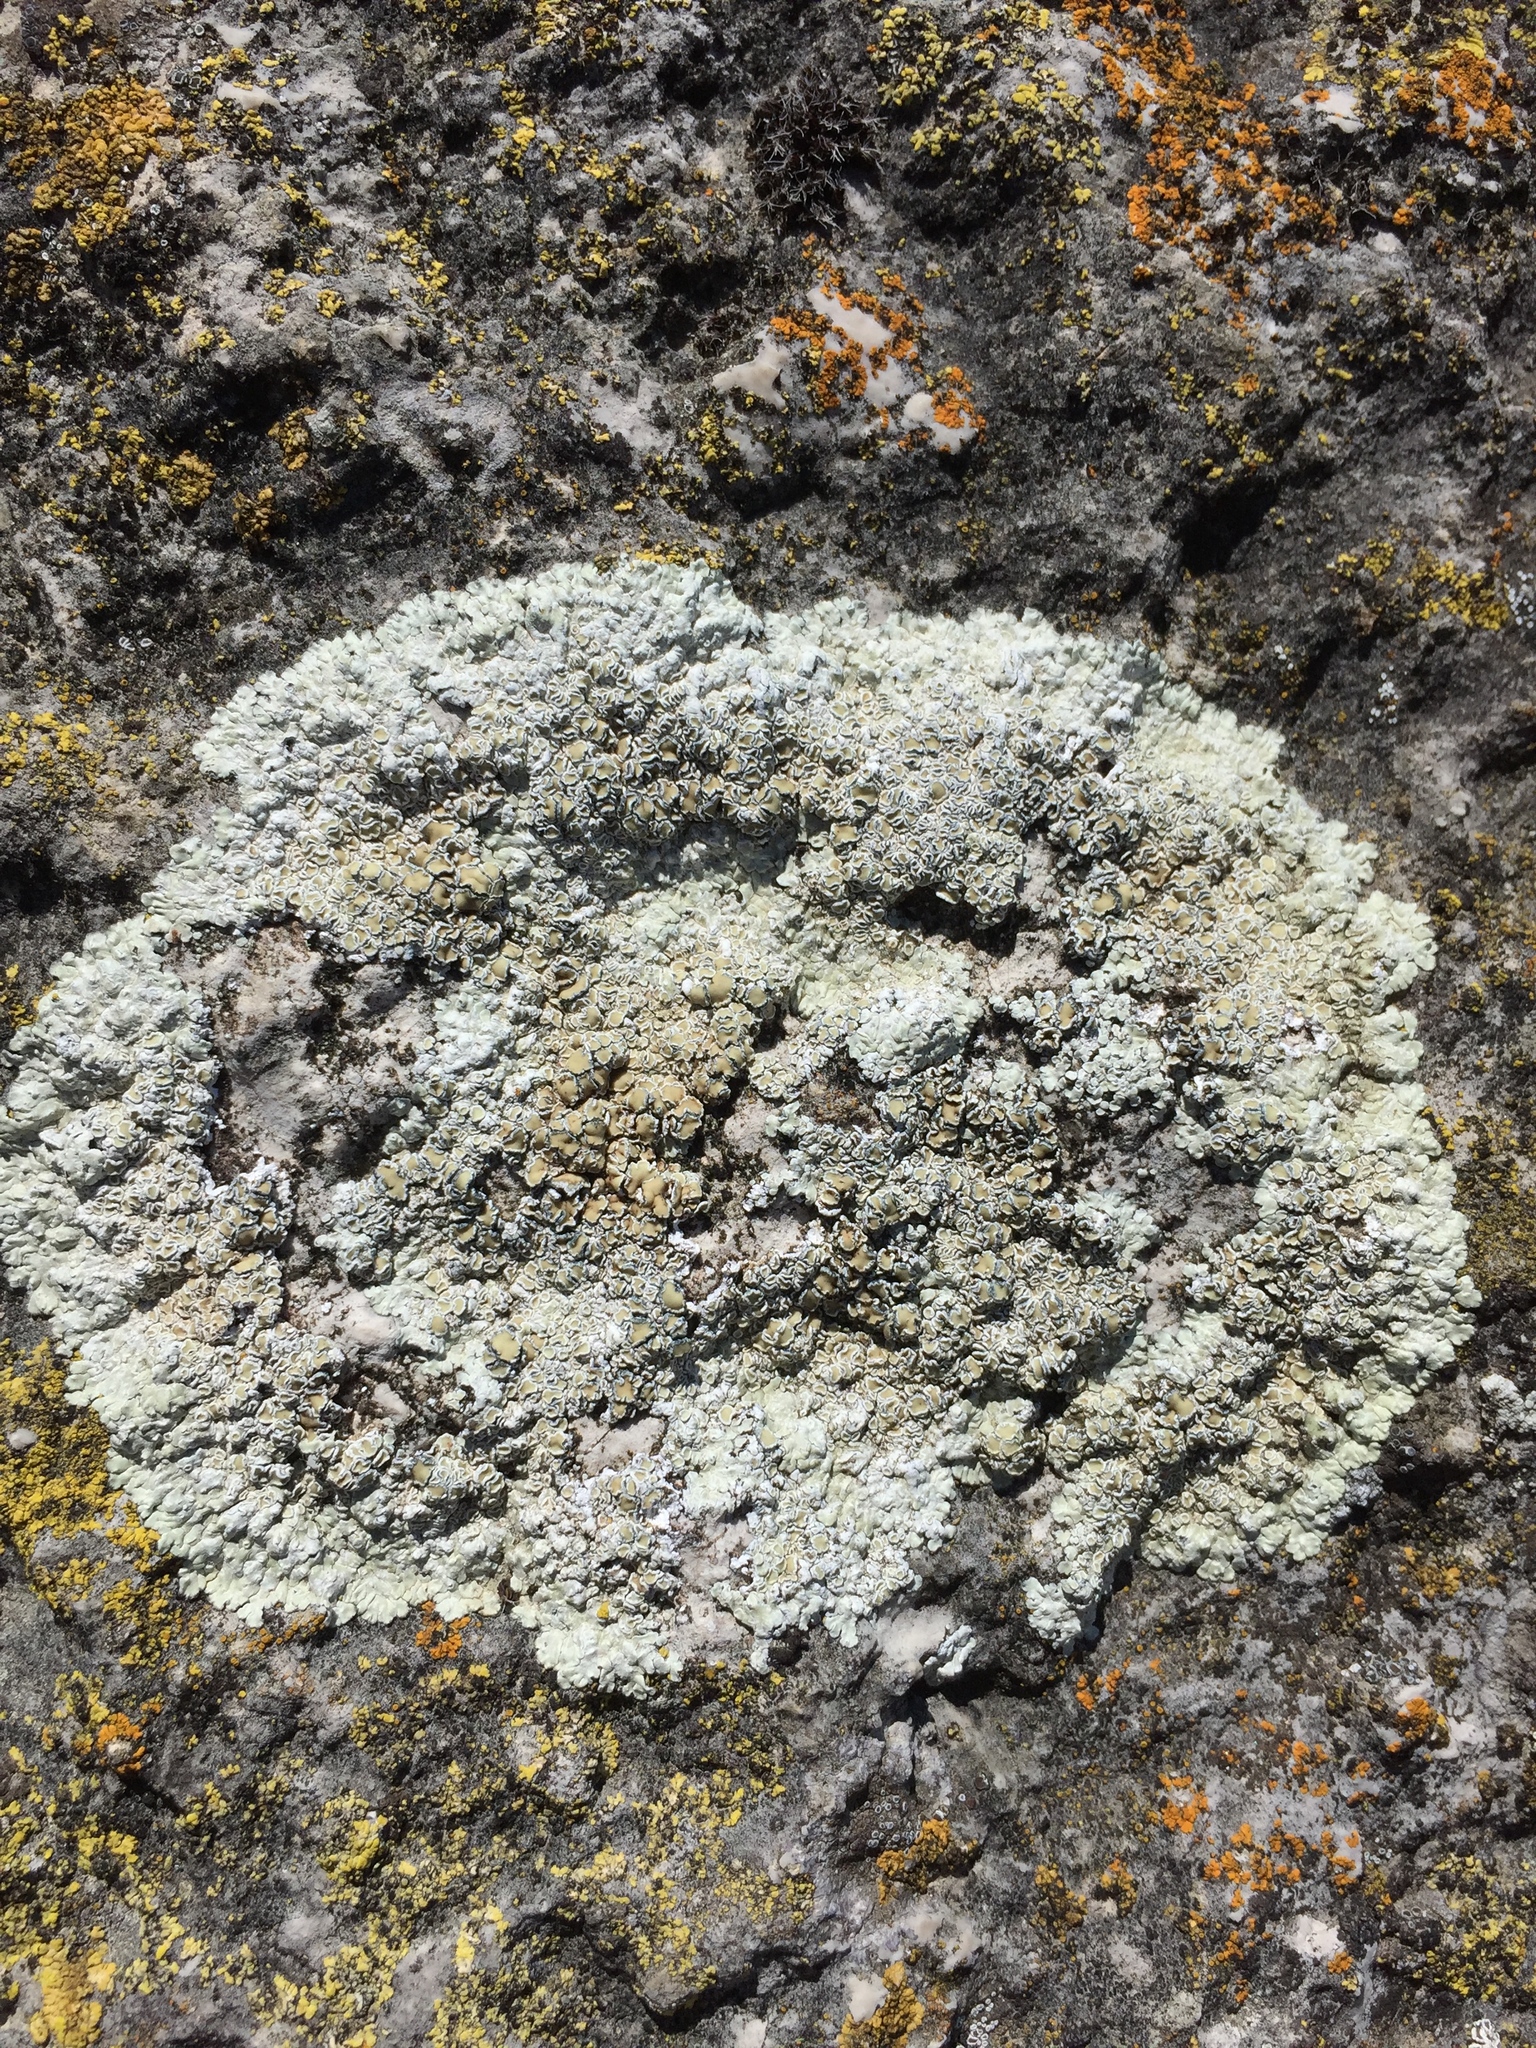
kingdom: Fungi
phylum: Ascomycota
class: Lecanoromycetes
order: Lecanorales
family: Lecanoraceae
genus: Protoparmeliopsis
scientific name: Protoparmeliopsis muralis
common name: Stonewall rim lichen
